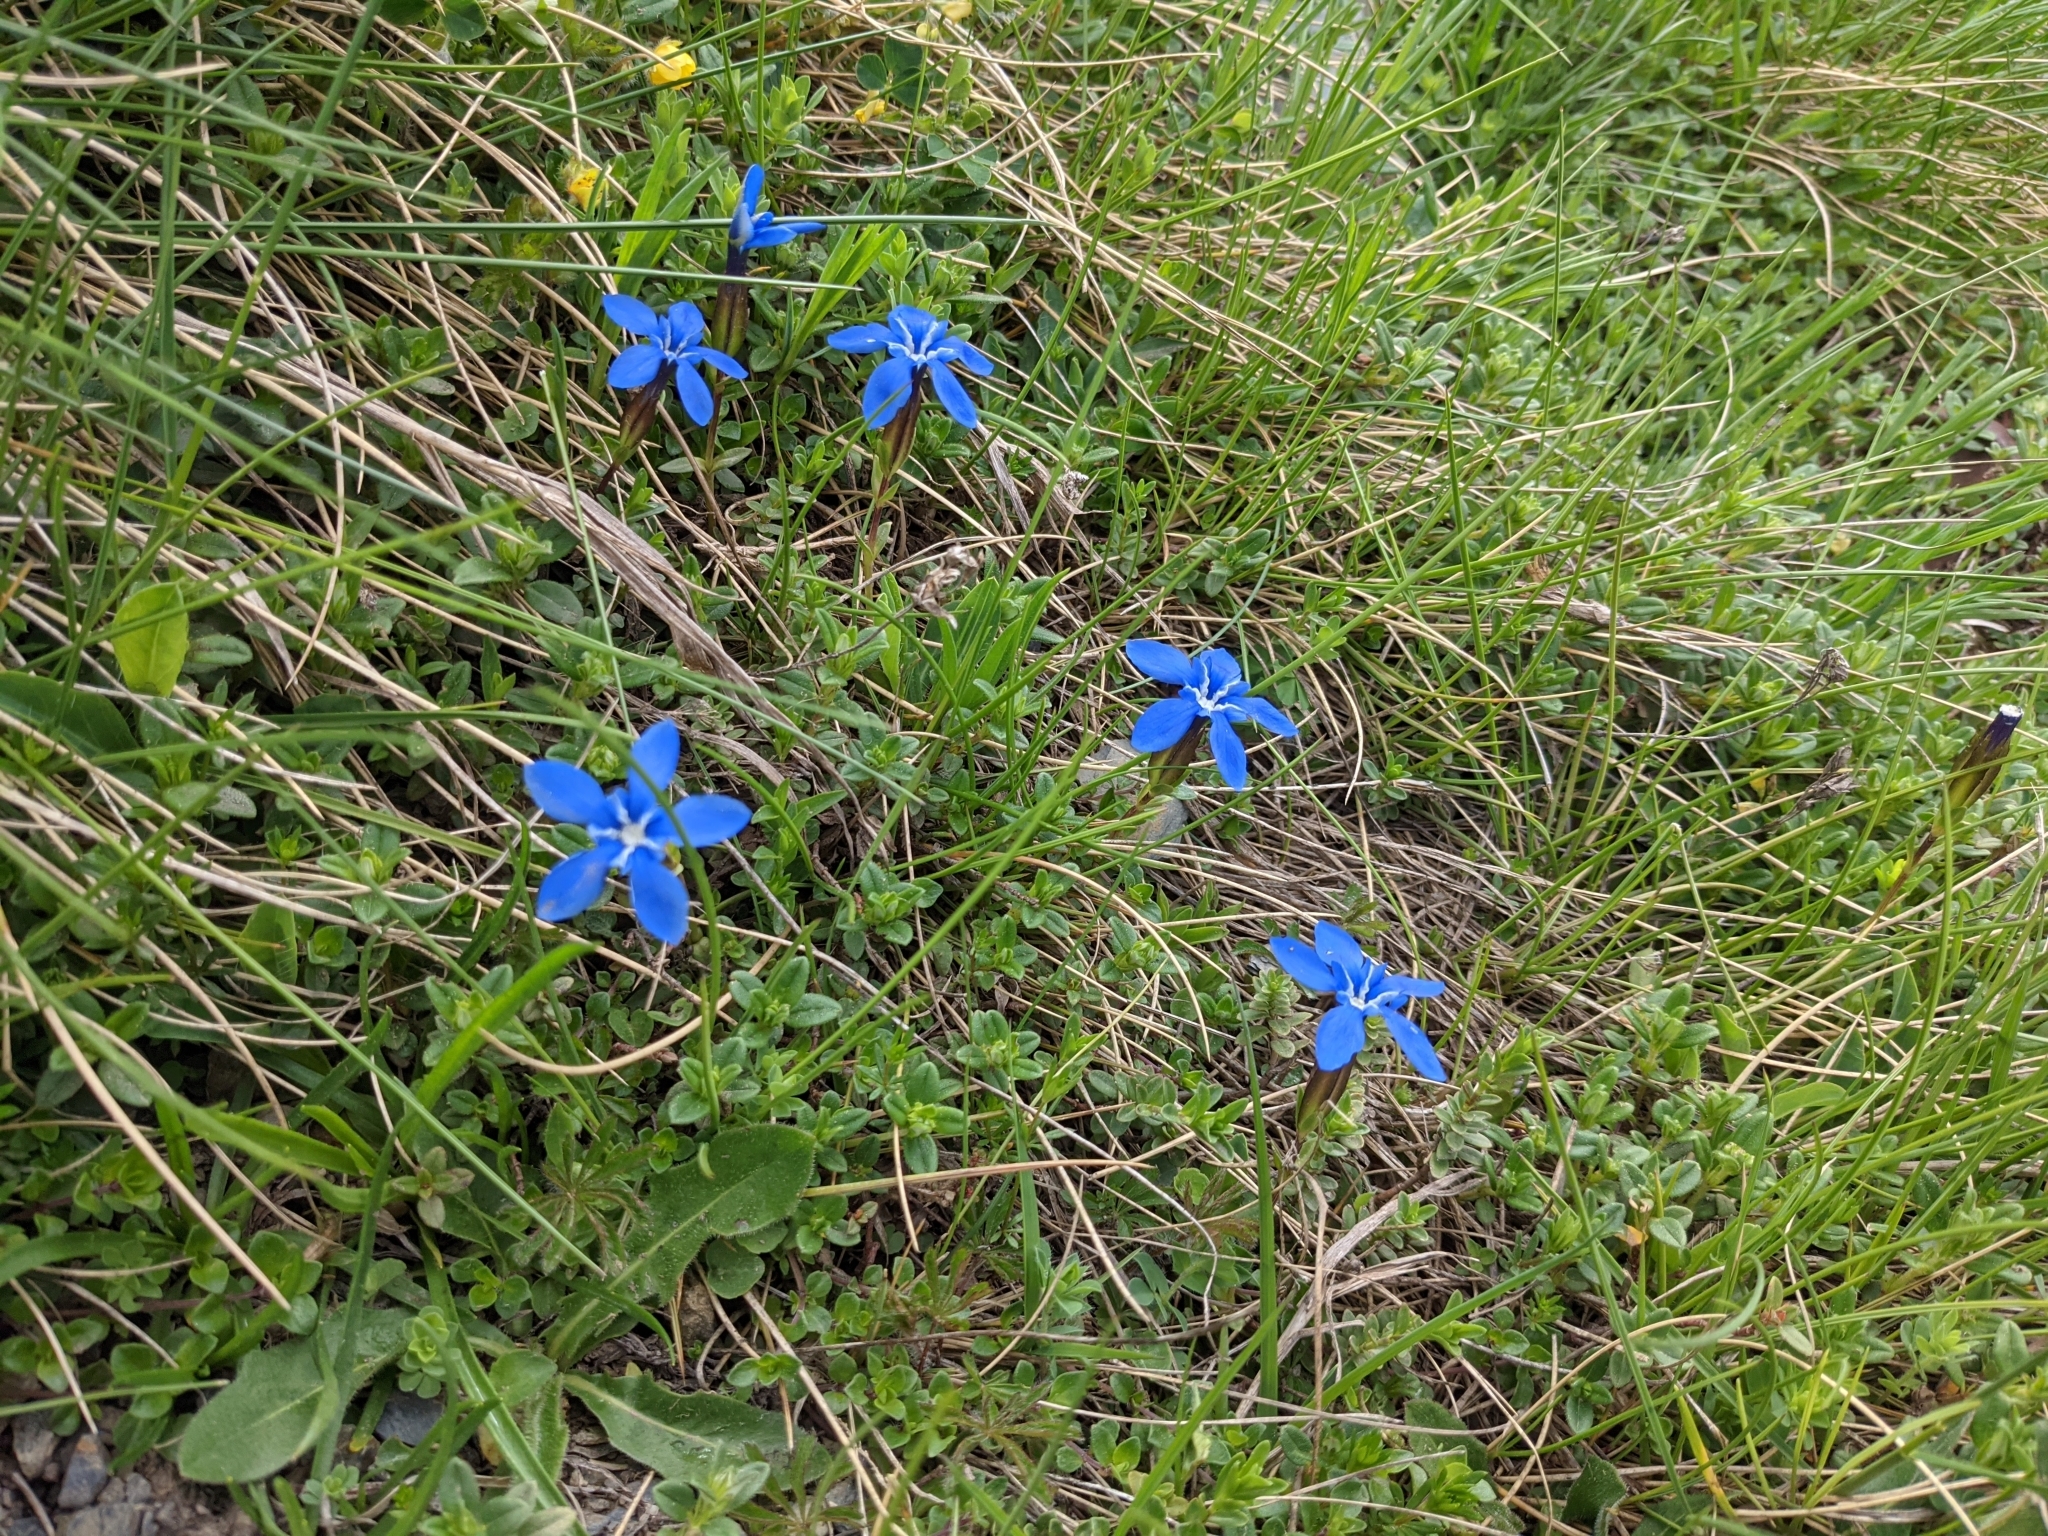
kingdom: Plantae
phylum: Tracheophyta
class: Magnoliopsida
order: Gentianales
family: Gentianaceae
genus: Gentiana
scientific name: Gentiana verna
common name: Spring gentian
